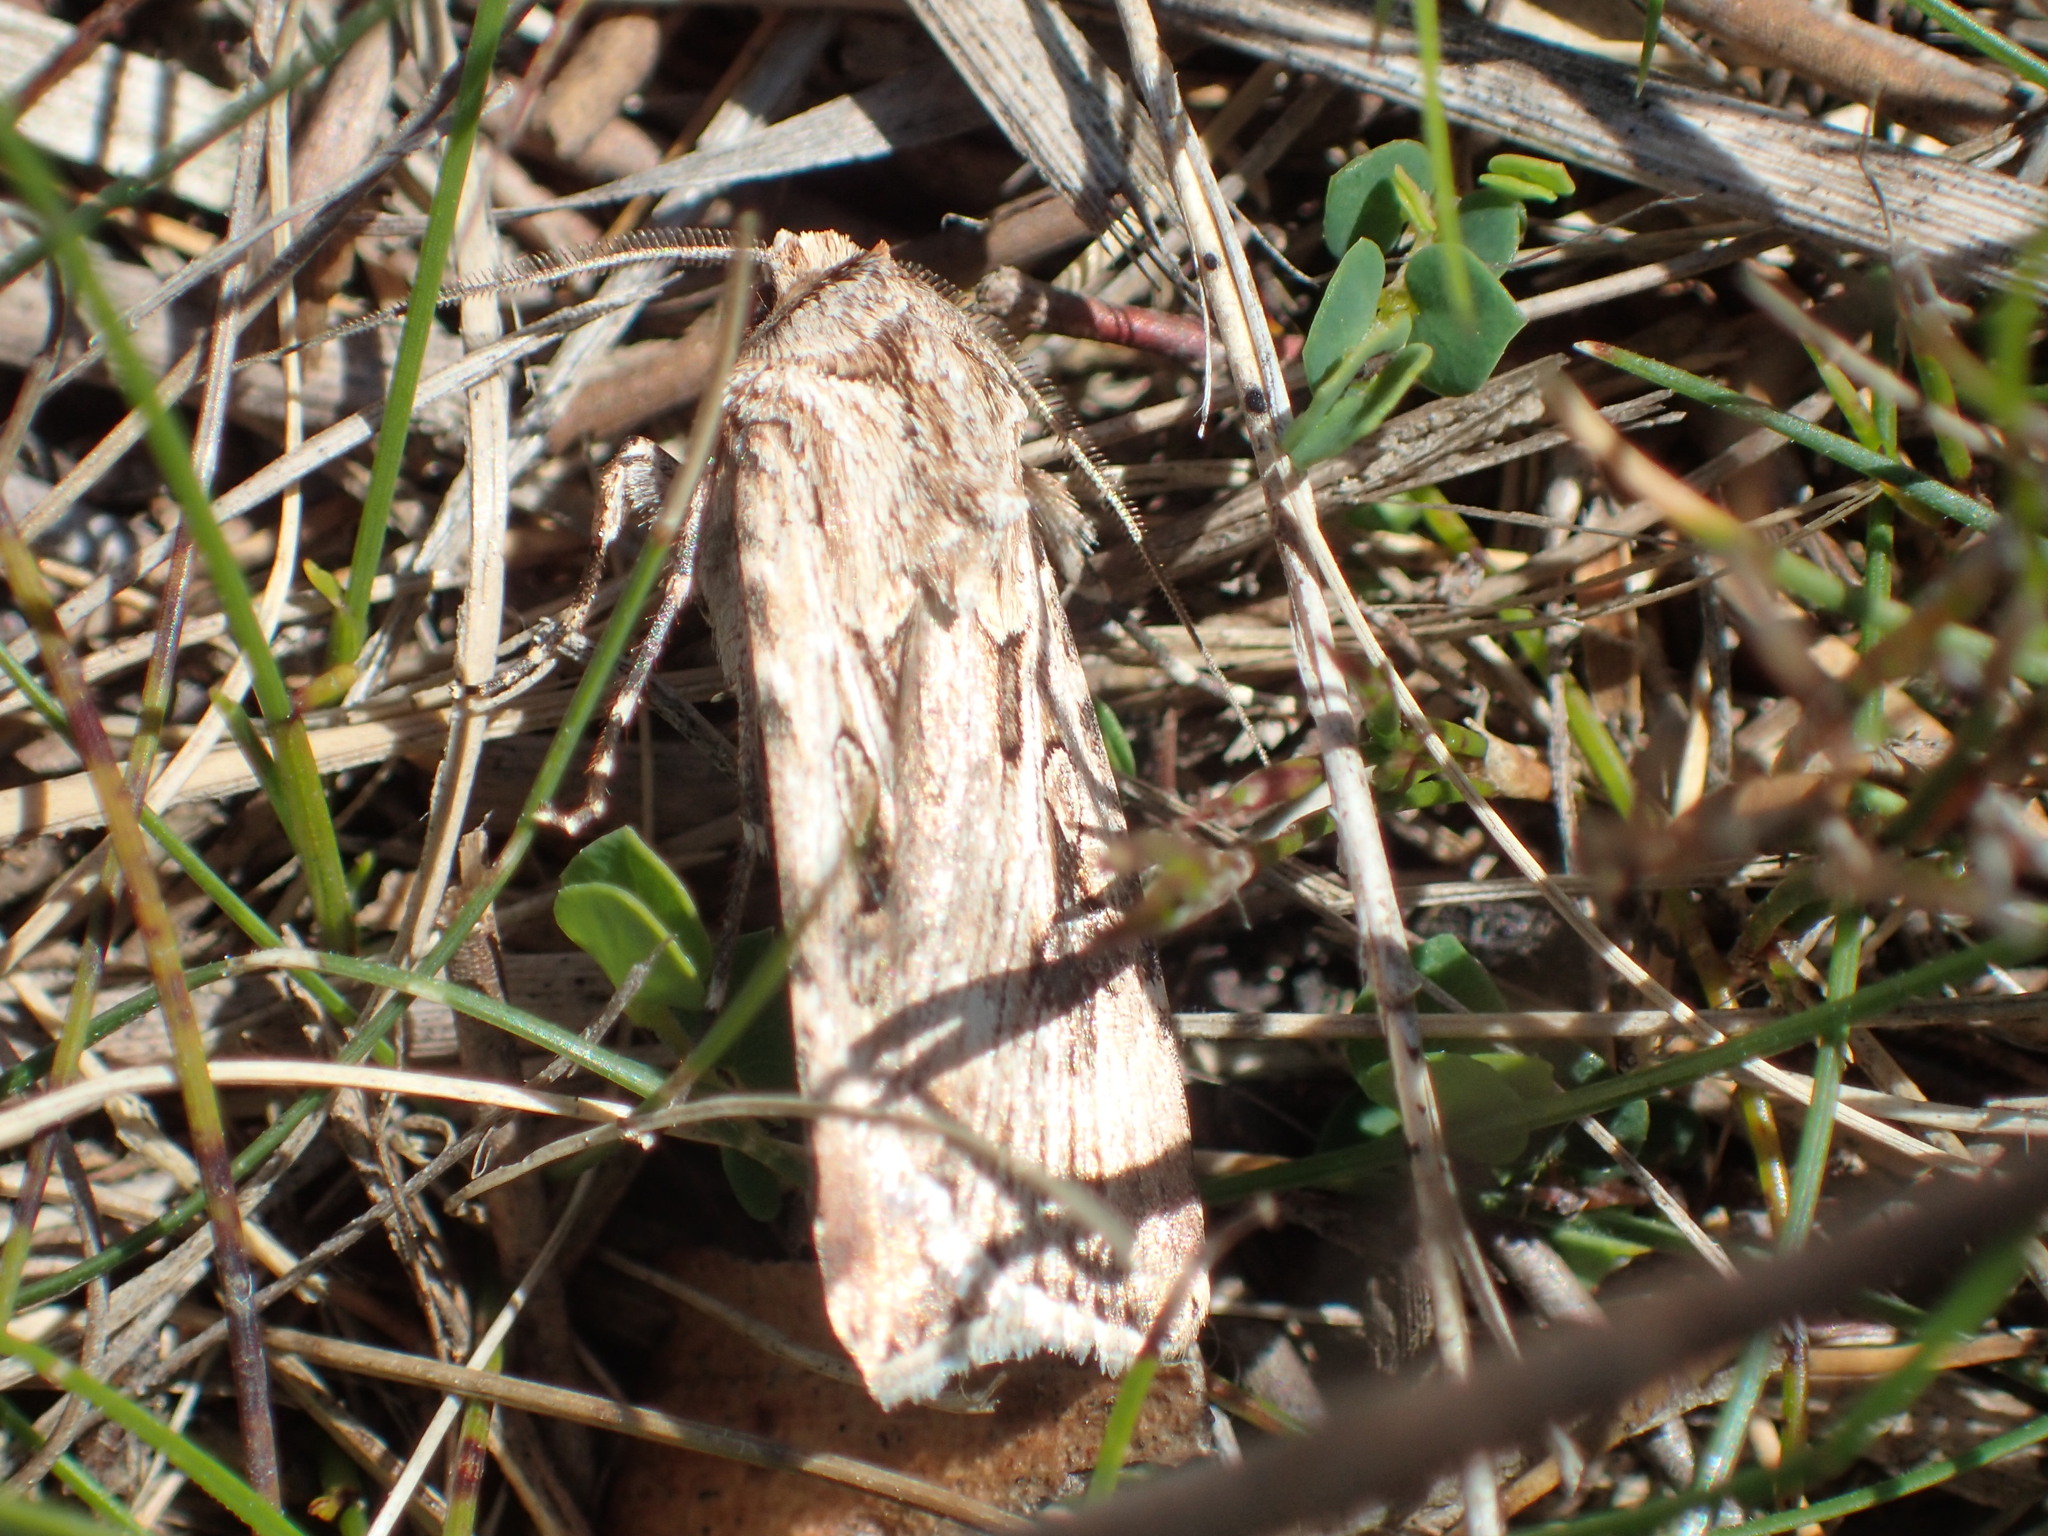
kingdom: Animalia
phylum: Arthropoda
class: Insecta
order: Lepidoptera
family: Noctuidae
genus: Agrotis
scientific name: Agrotis munda
